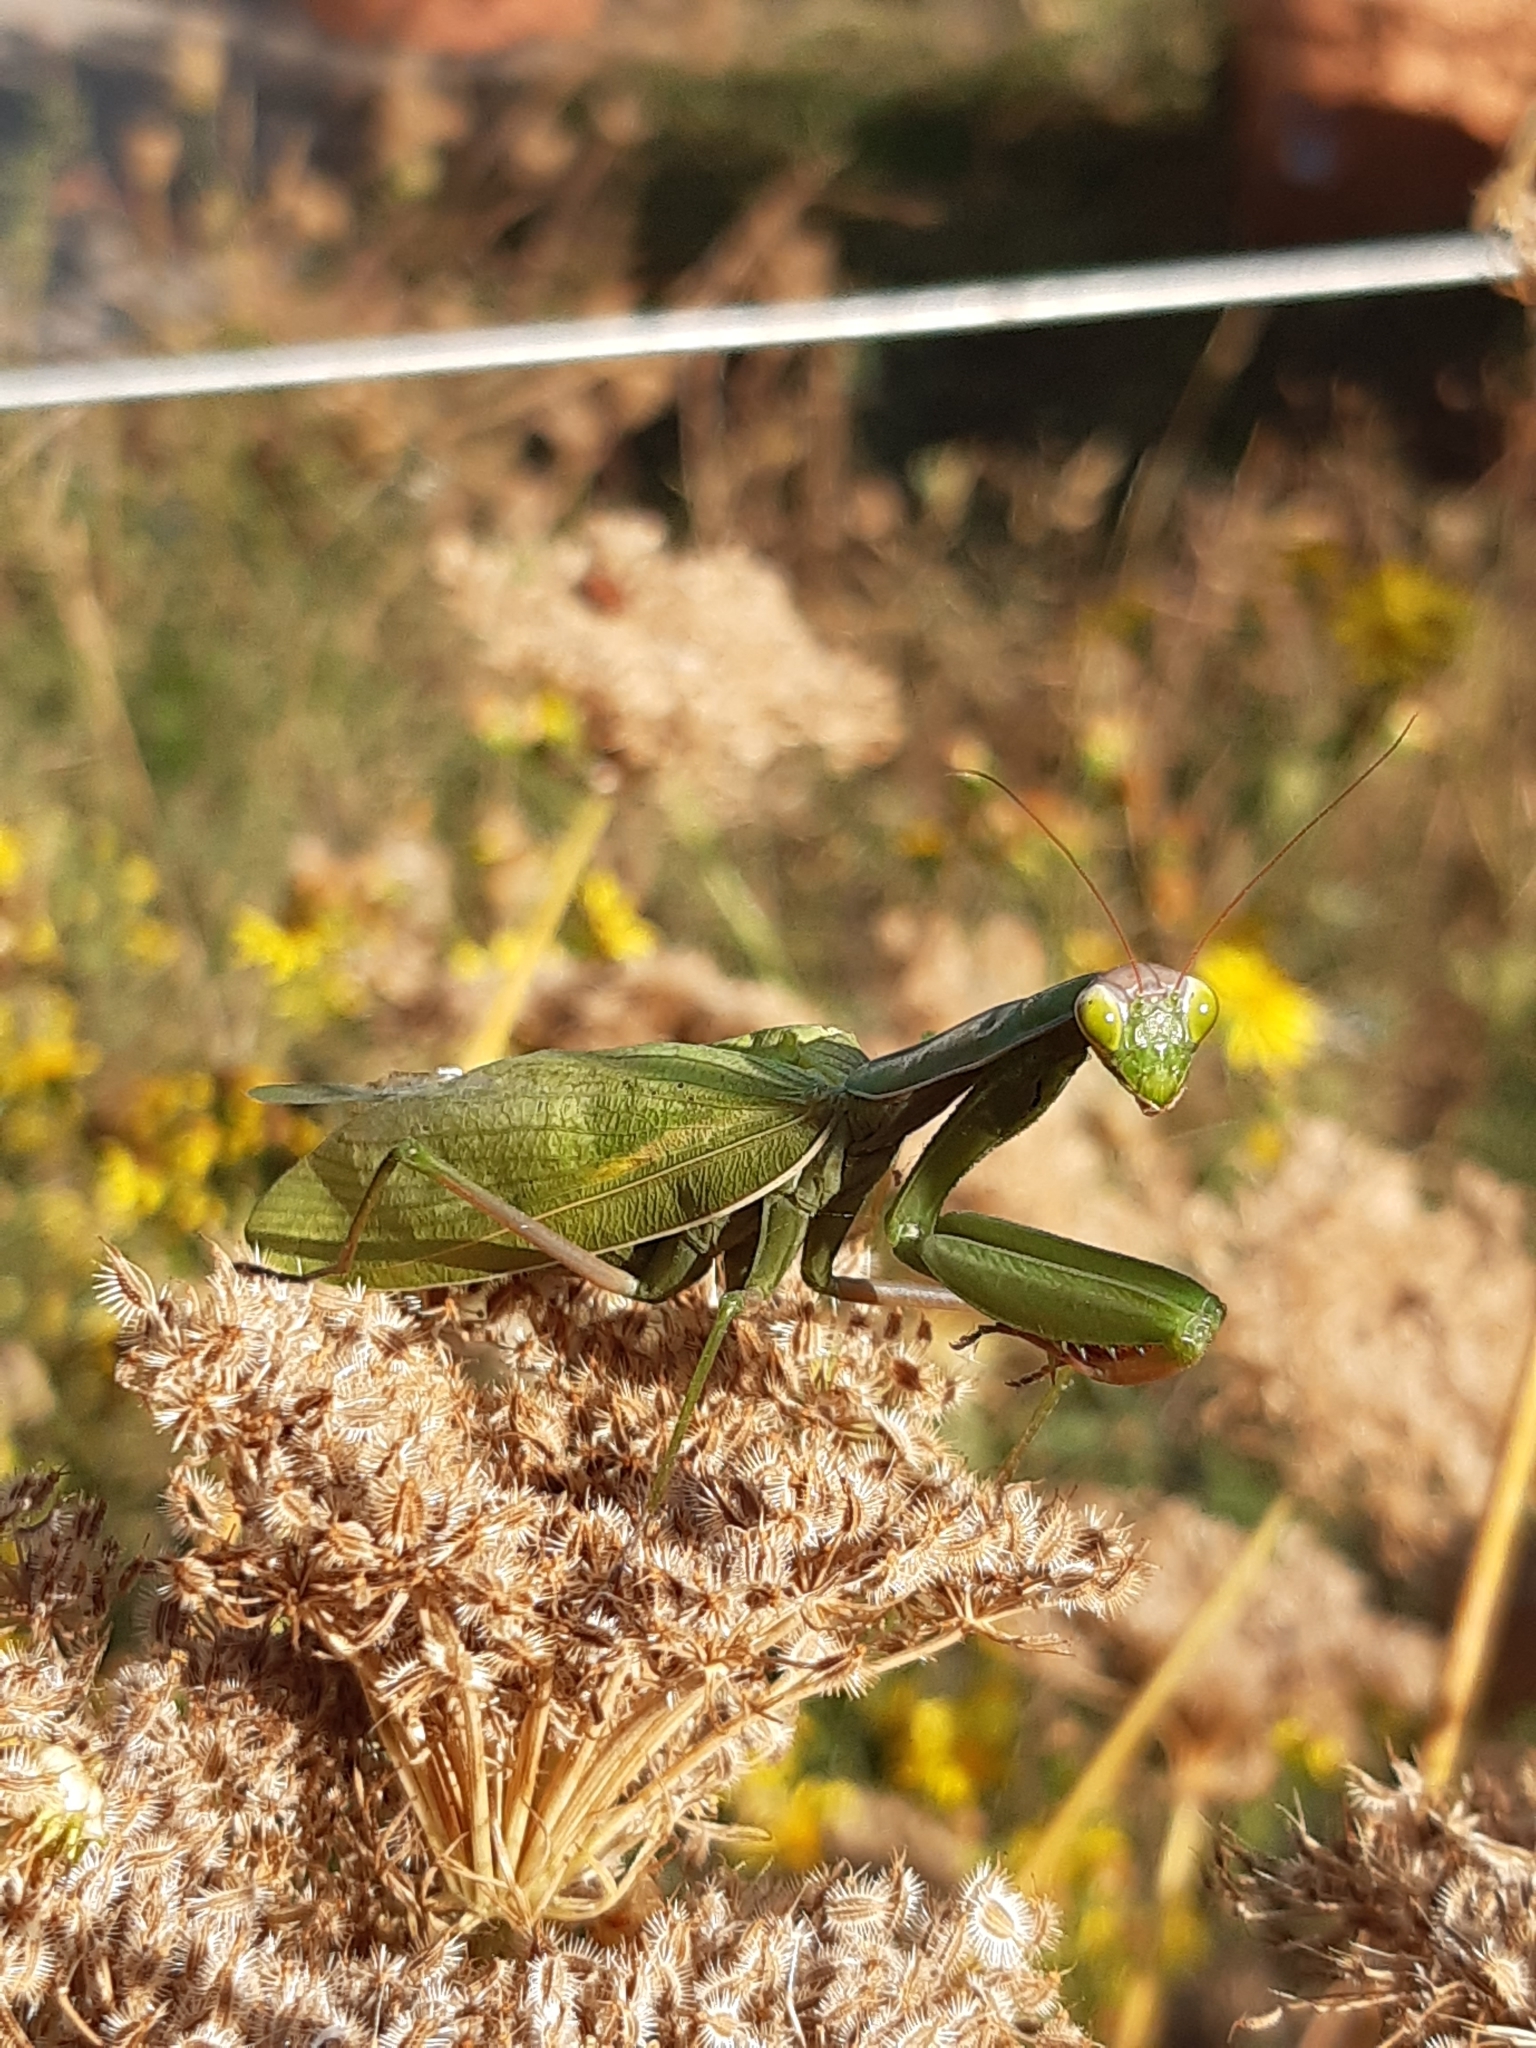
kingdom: Animalia
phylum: Arthropoda
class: Insecta
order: Mantodea
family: Mantidae
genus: Mantis
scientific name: Mantis religiosa
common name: Praying mantis
